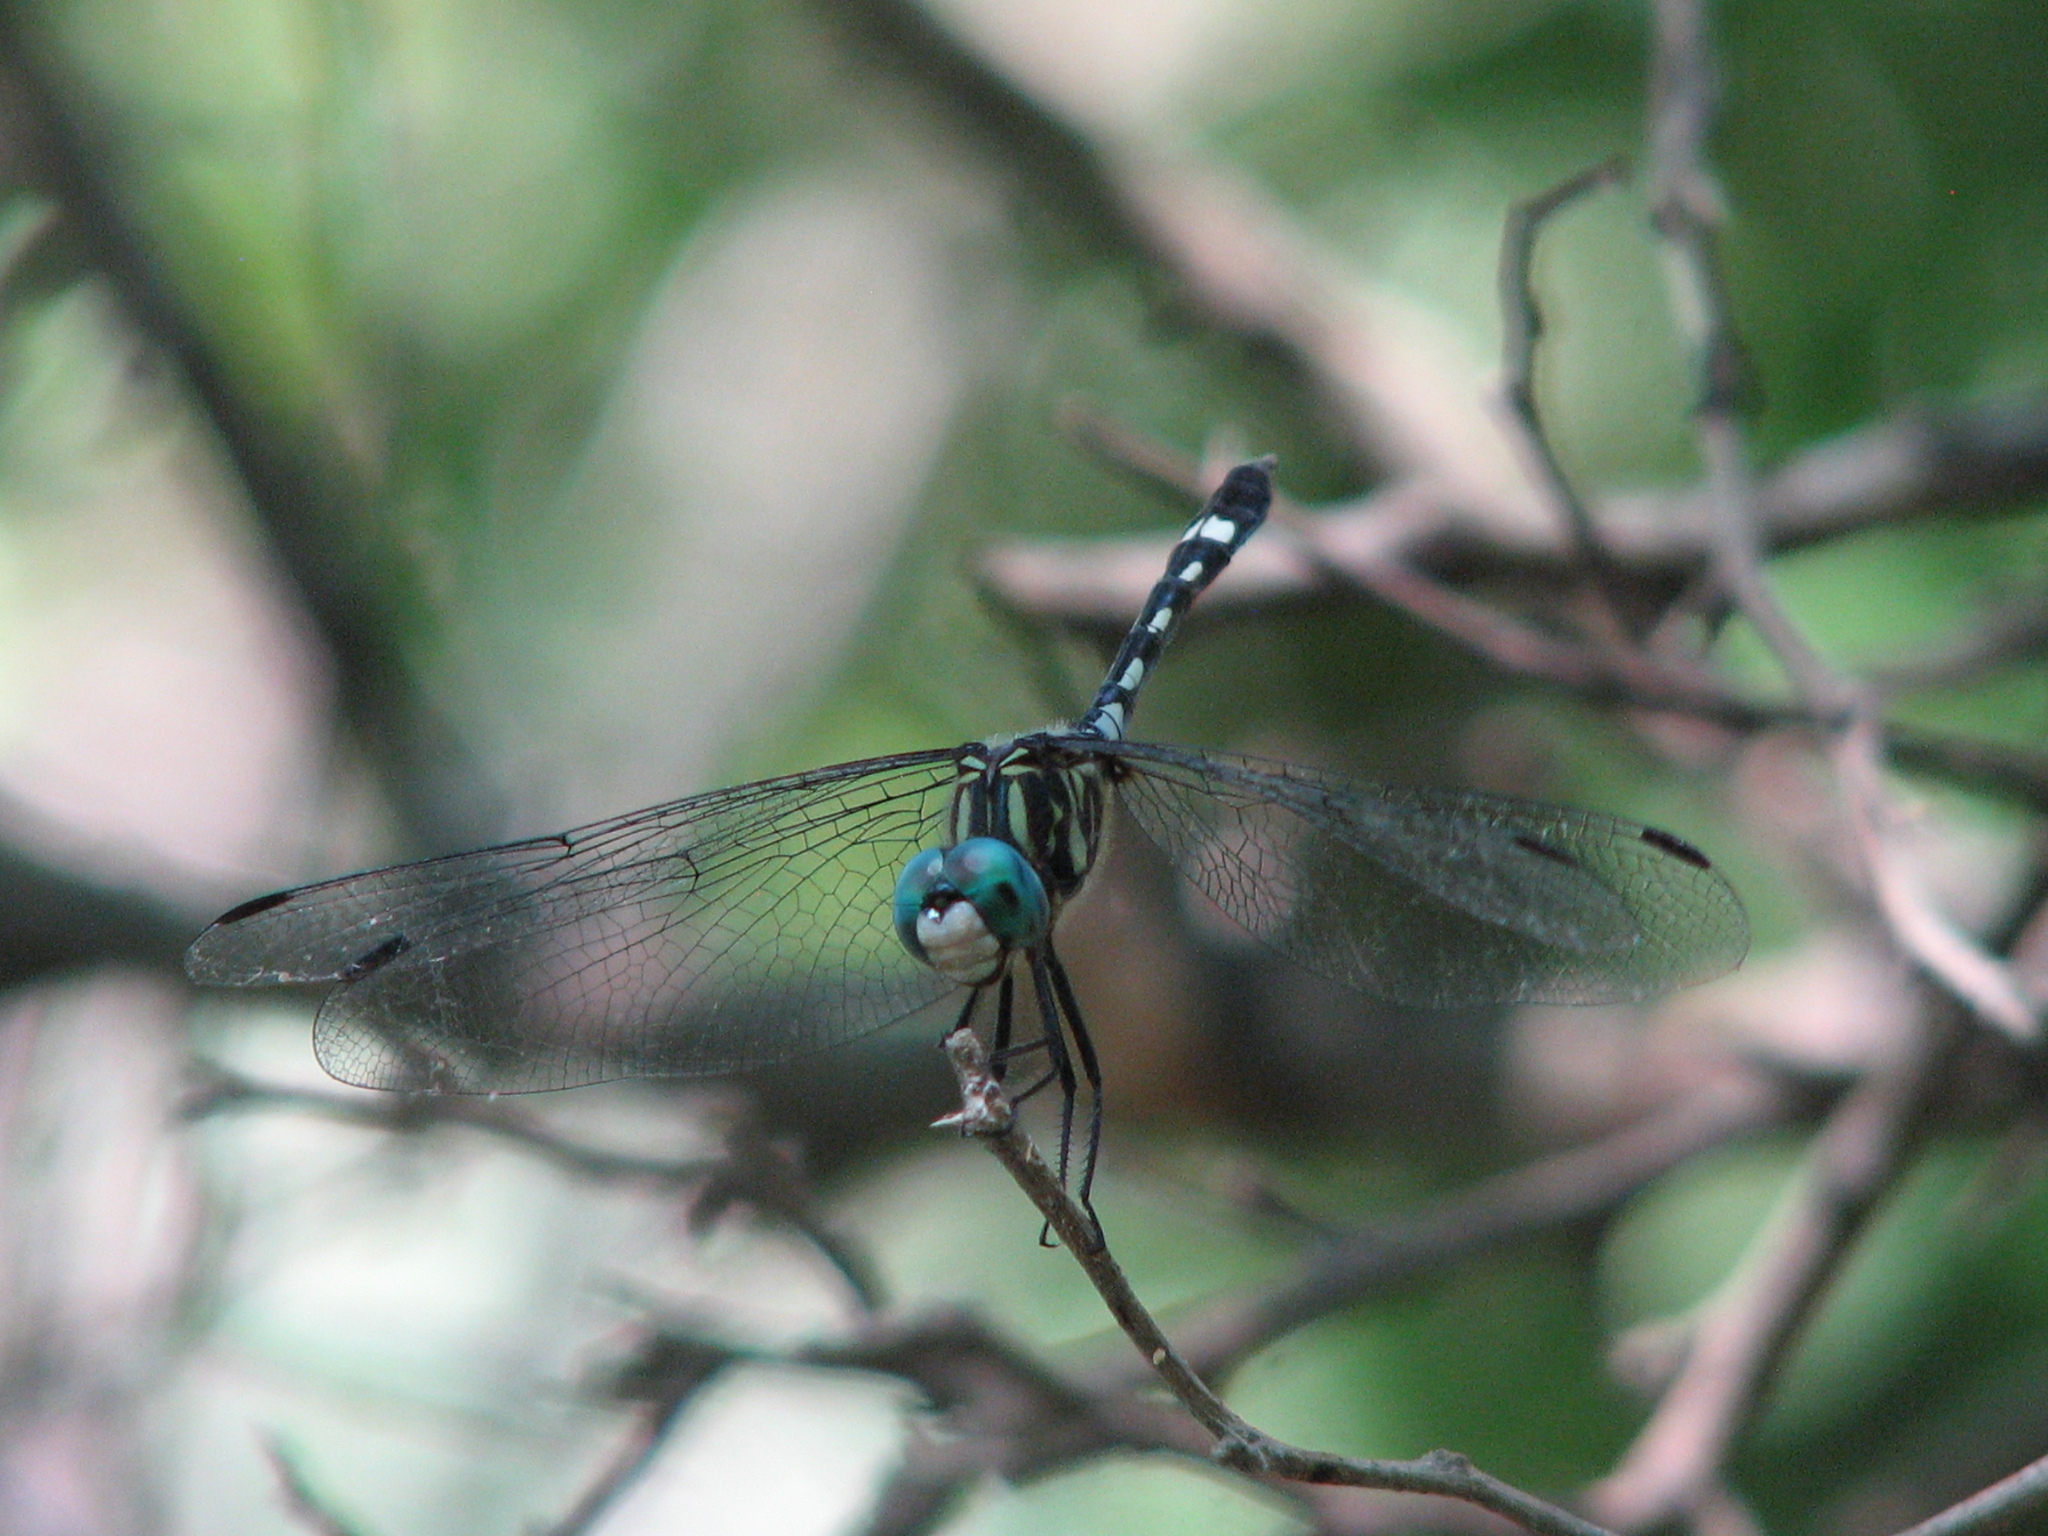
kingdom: Animalia
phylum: Arthropoda
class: Insecta
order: Odonata
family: Libellulidae
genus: Micrathyria
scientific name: Micrathyria hagenii
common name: Thornbush dasher
